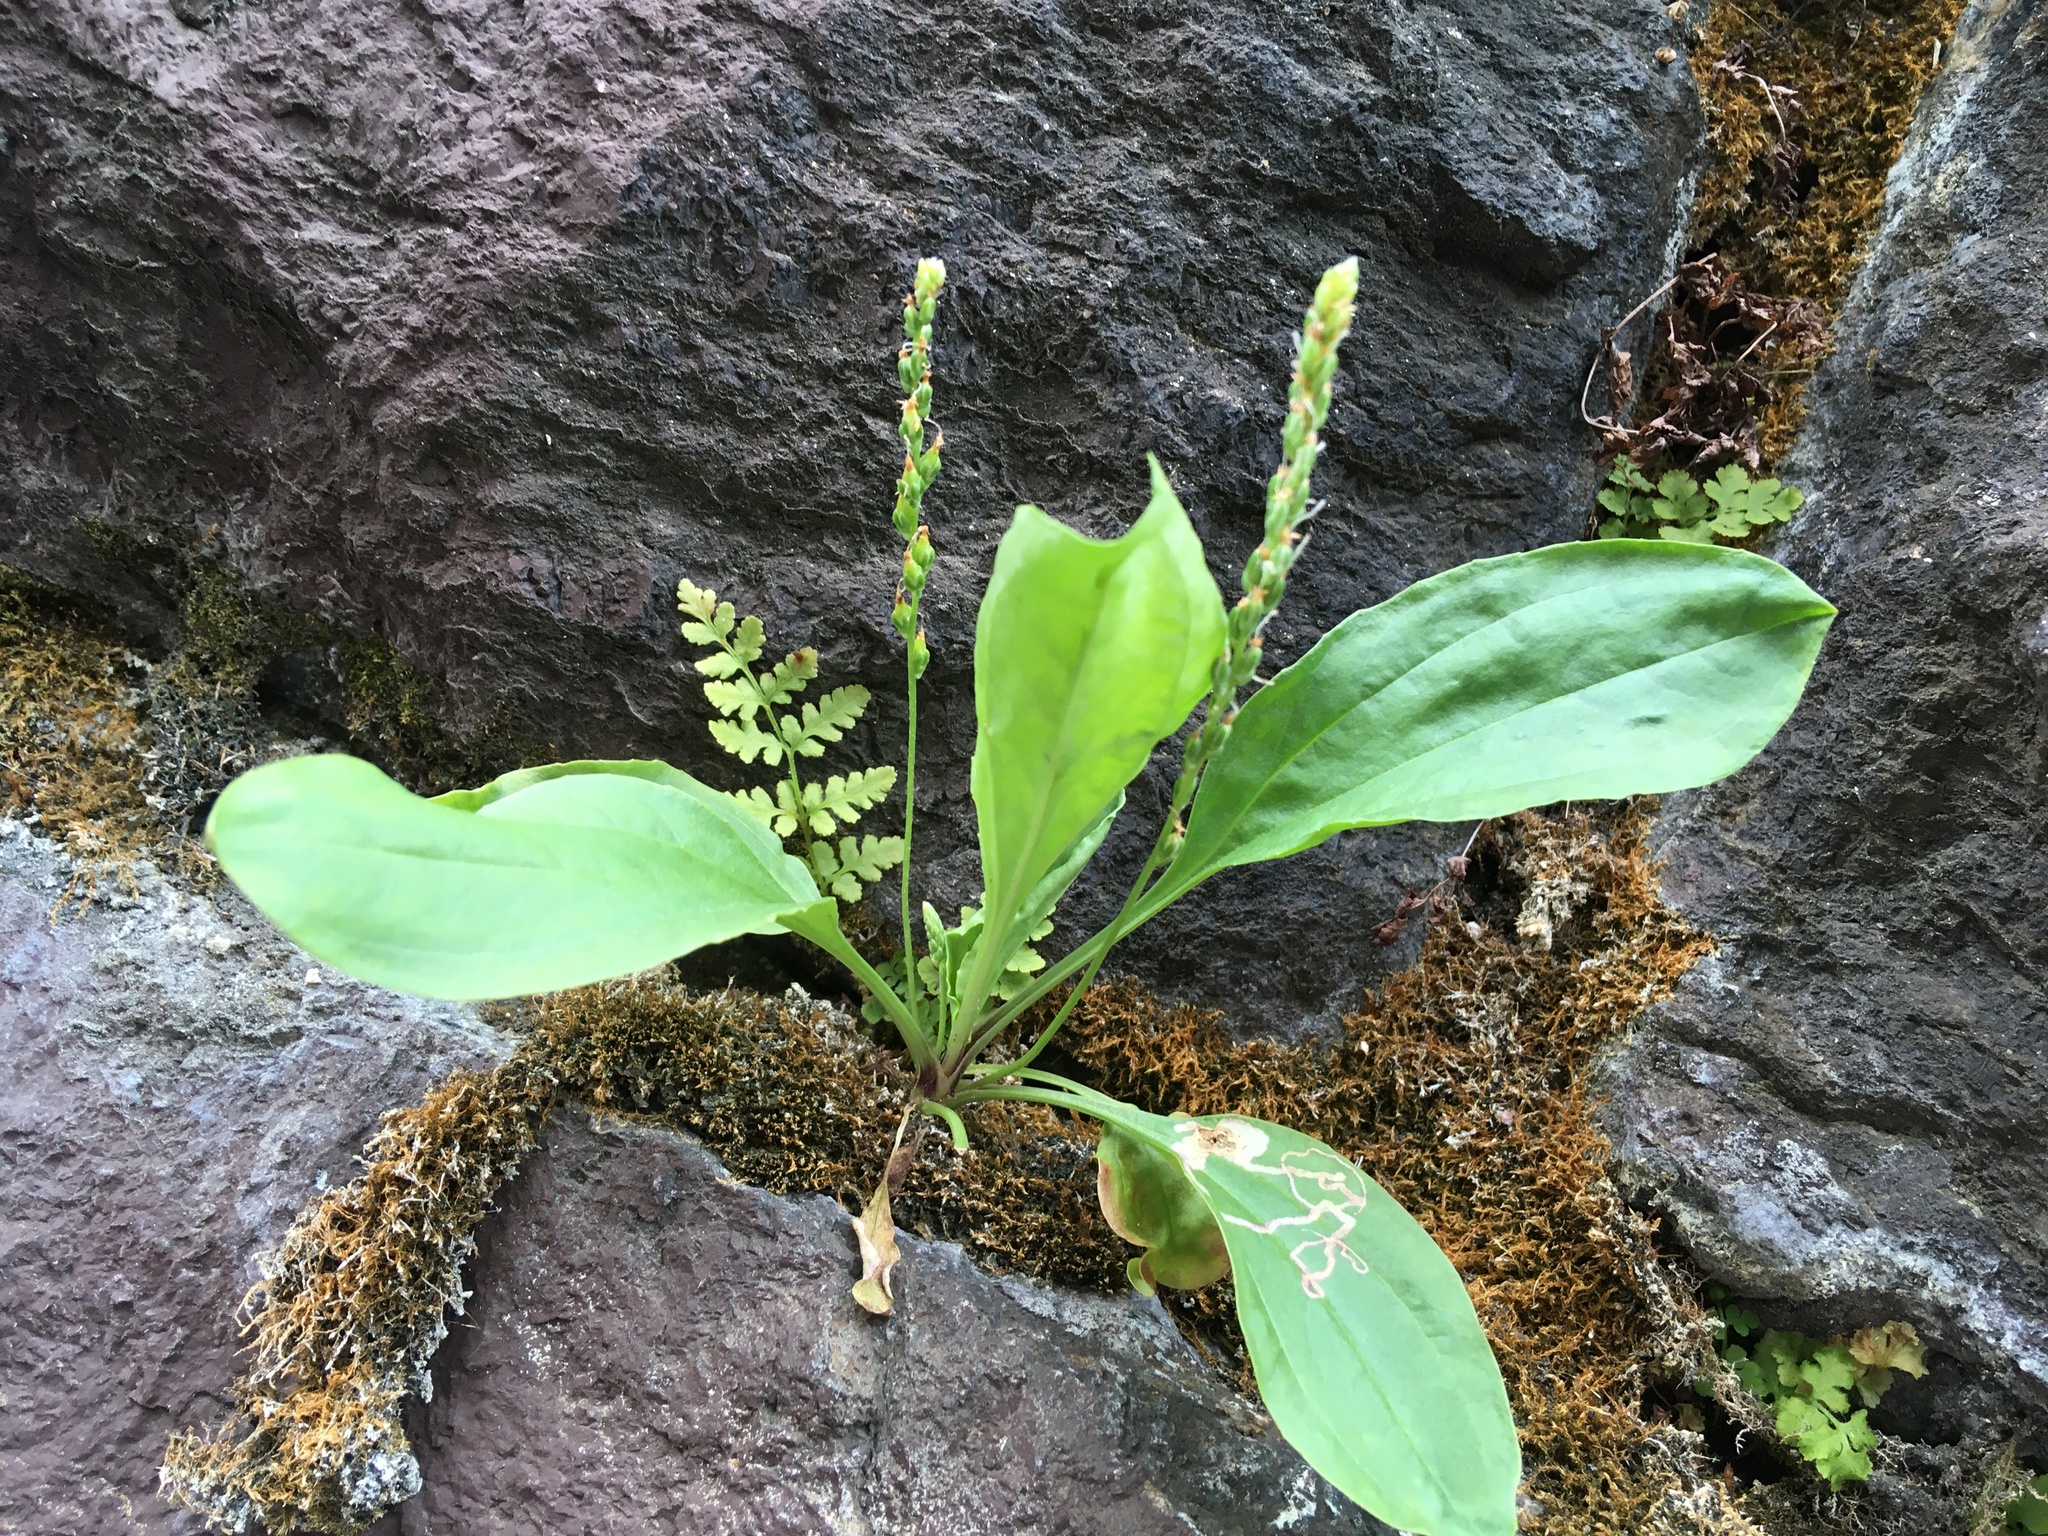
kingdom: Plantae
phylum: Tracheophyta
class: Magnoliopsida
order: Lamiales
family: Plantaginaceae
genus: Plantago
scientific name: Plantago rugelii
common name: American plantain
